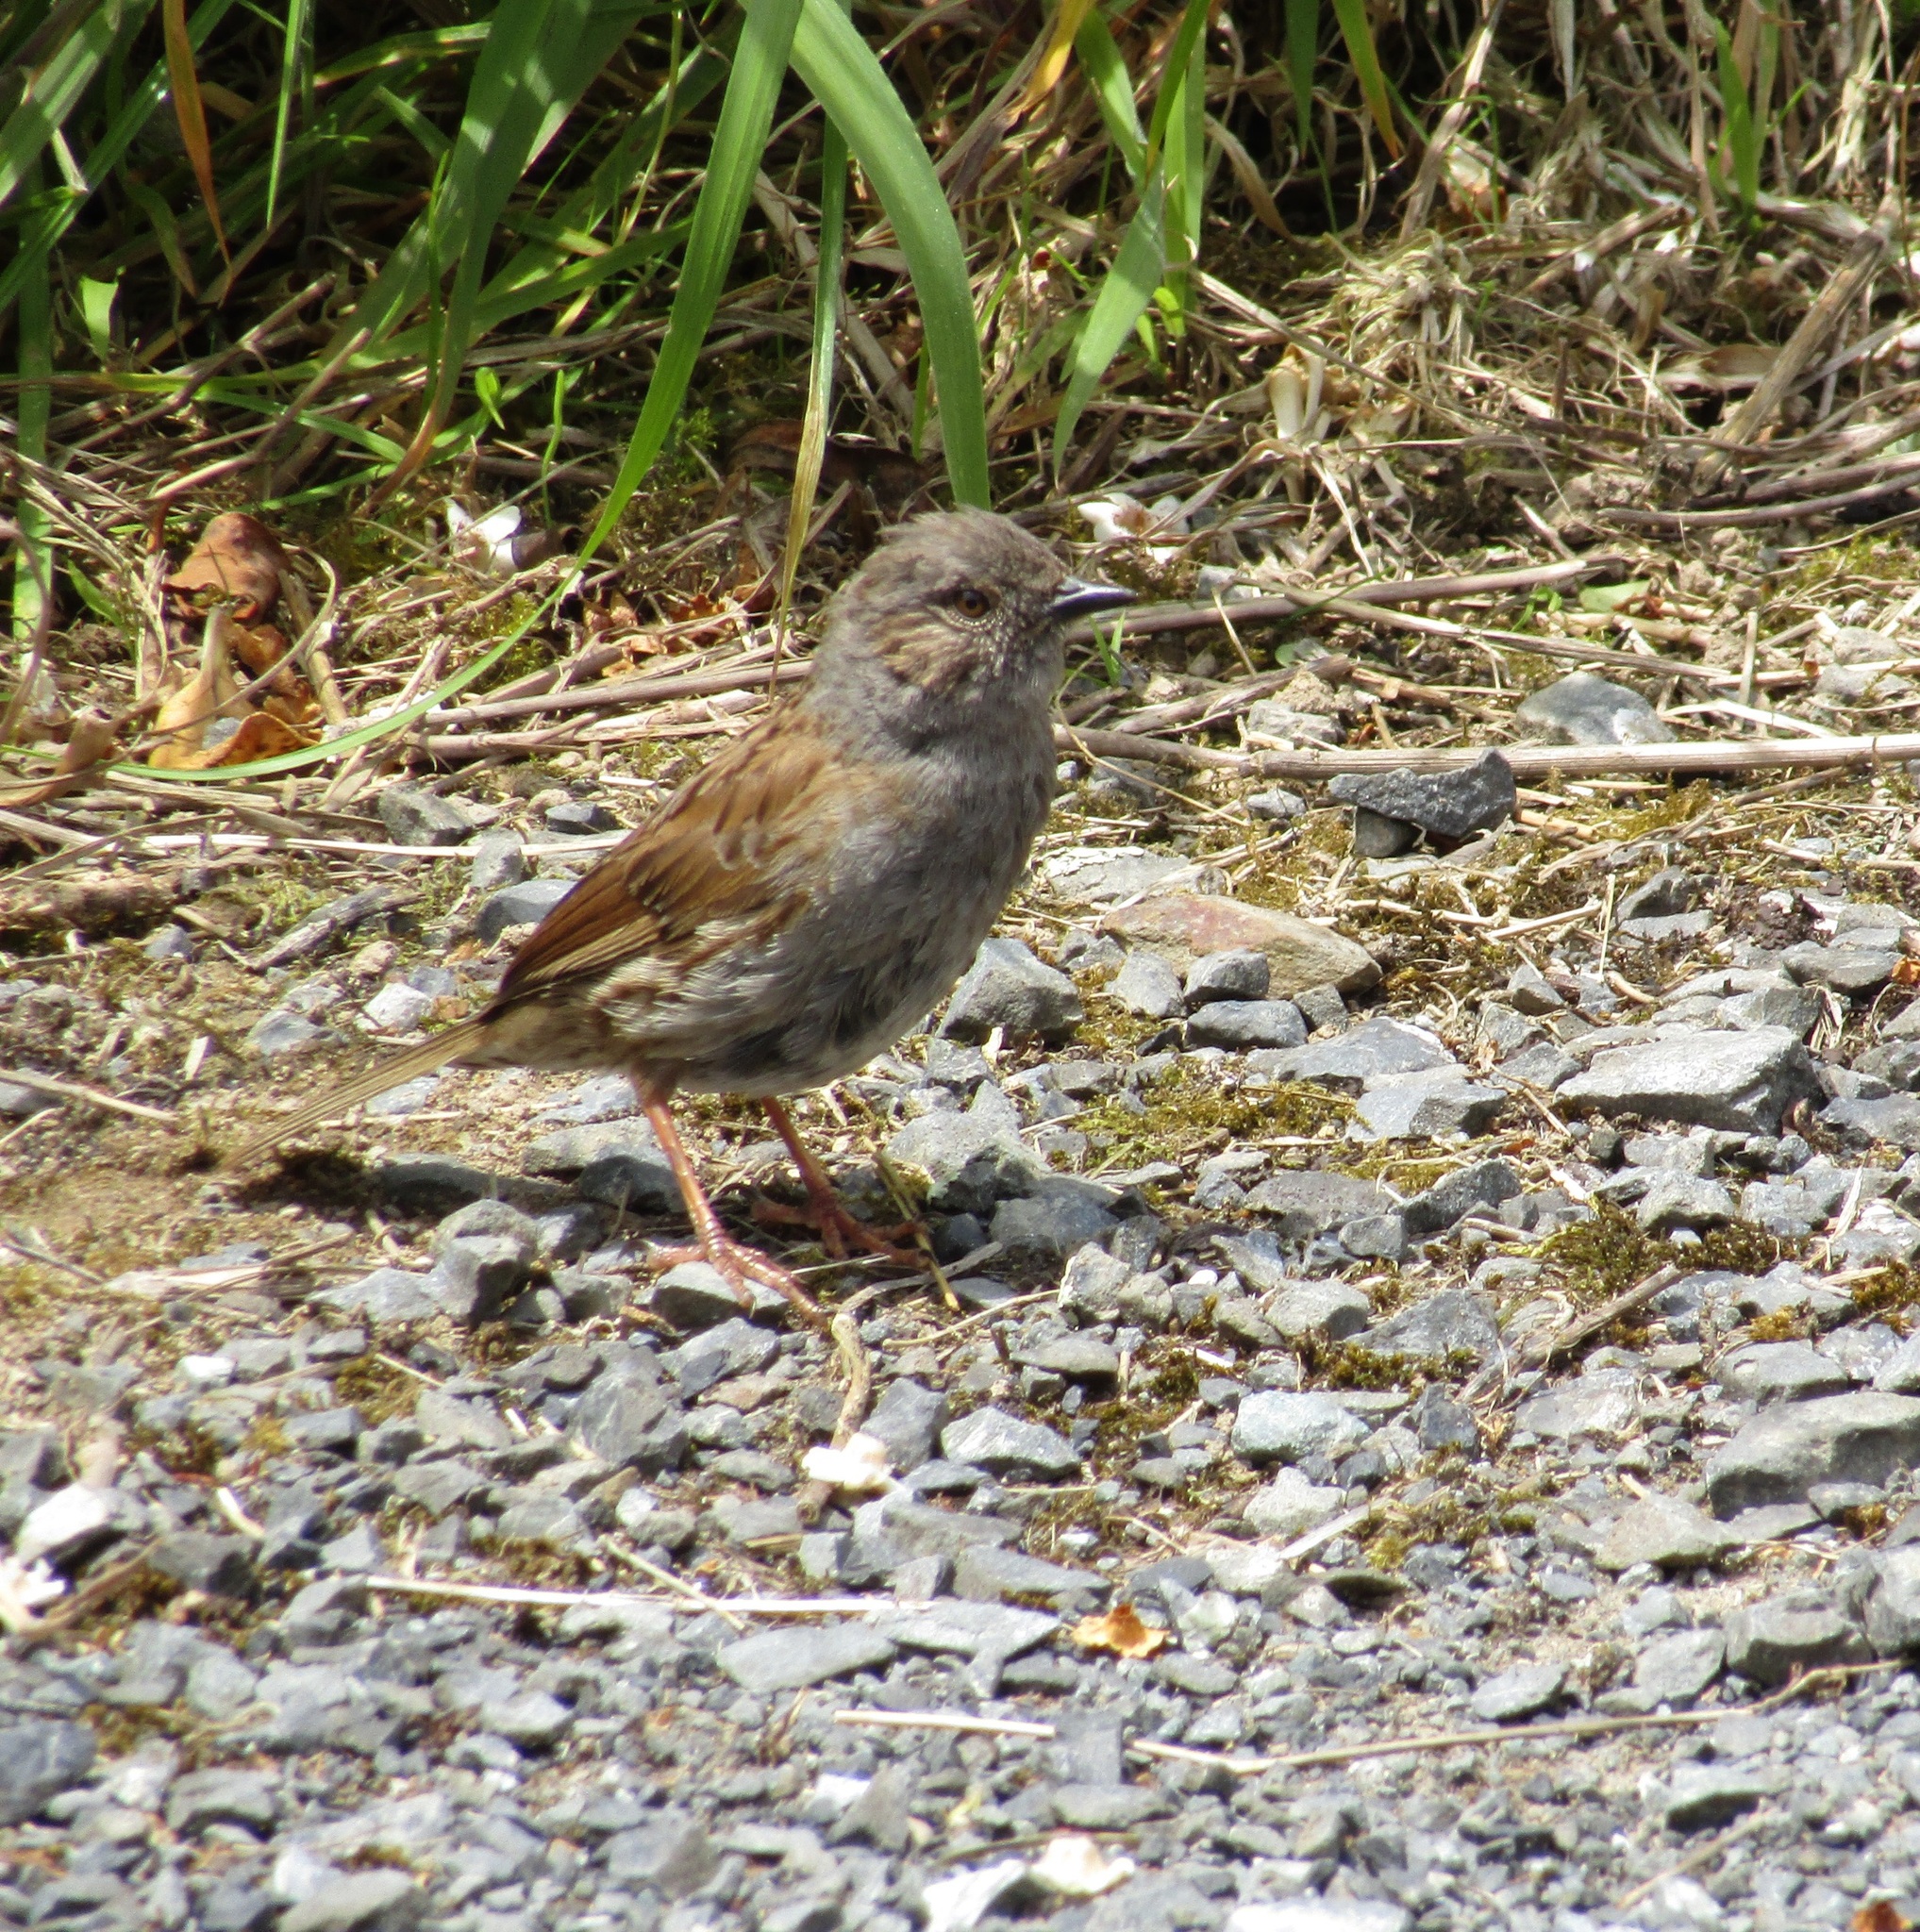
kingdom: Animalia
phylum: Chordata
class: Aves
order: Passeriformes
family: Prunellidae
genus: Prunella
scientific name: Prunella modularis
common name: Dunnock
